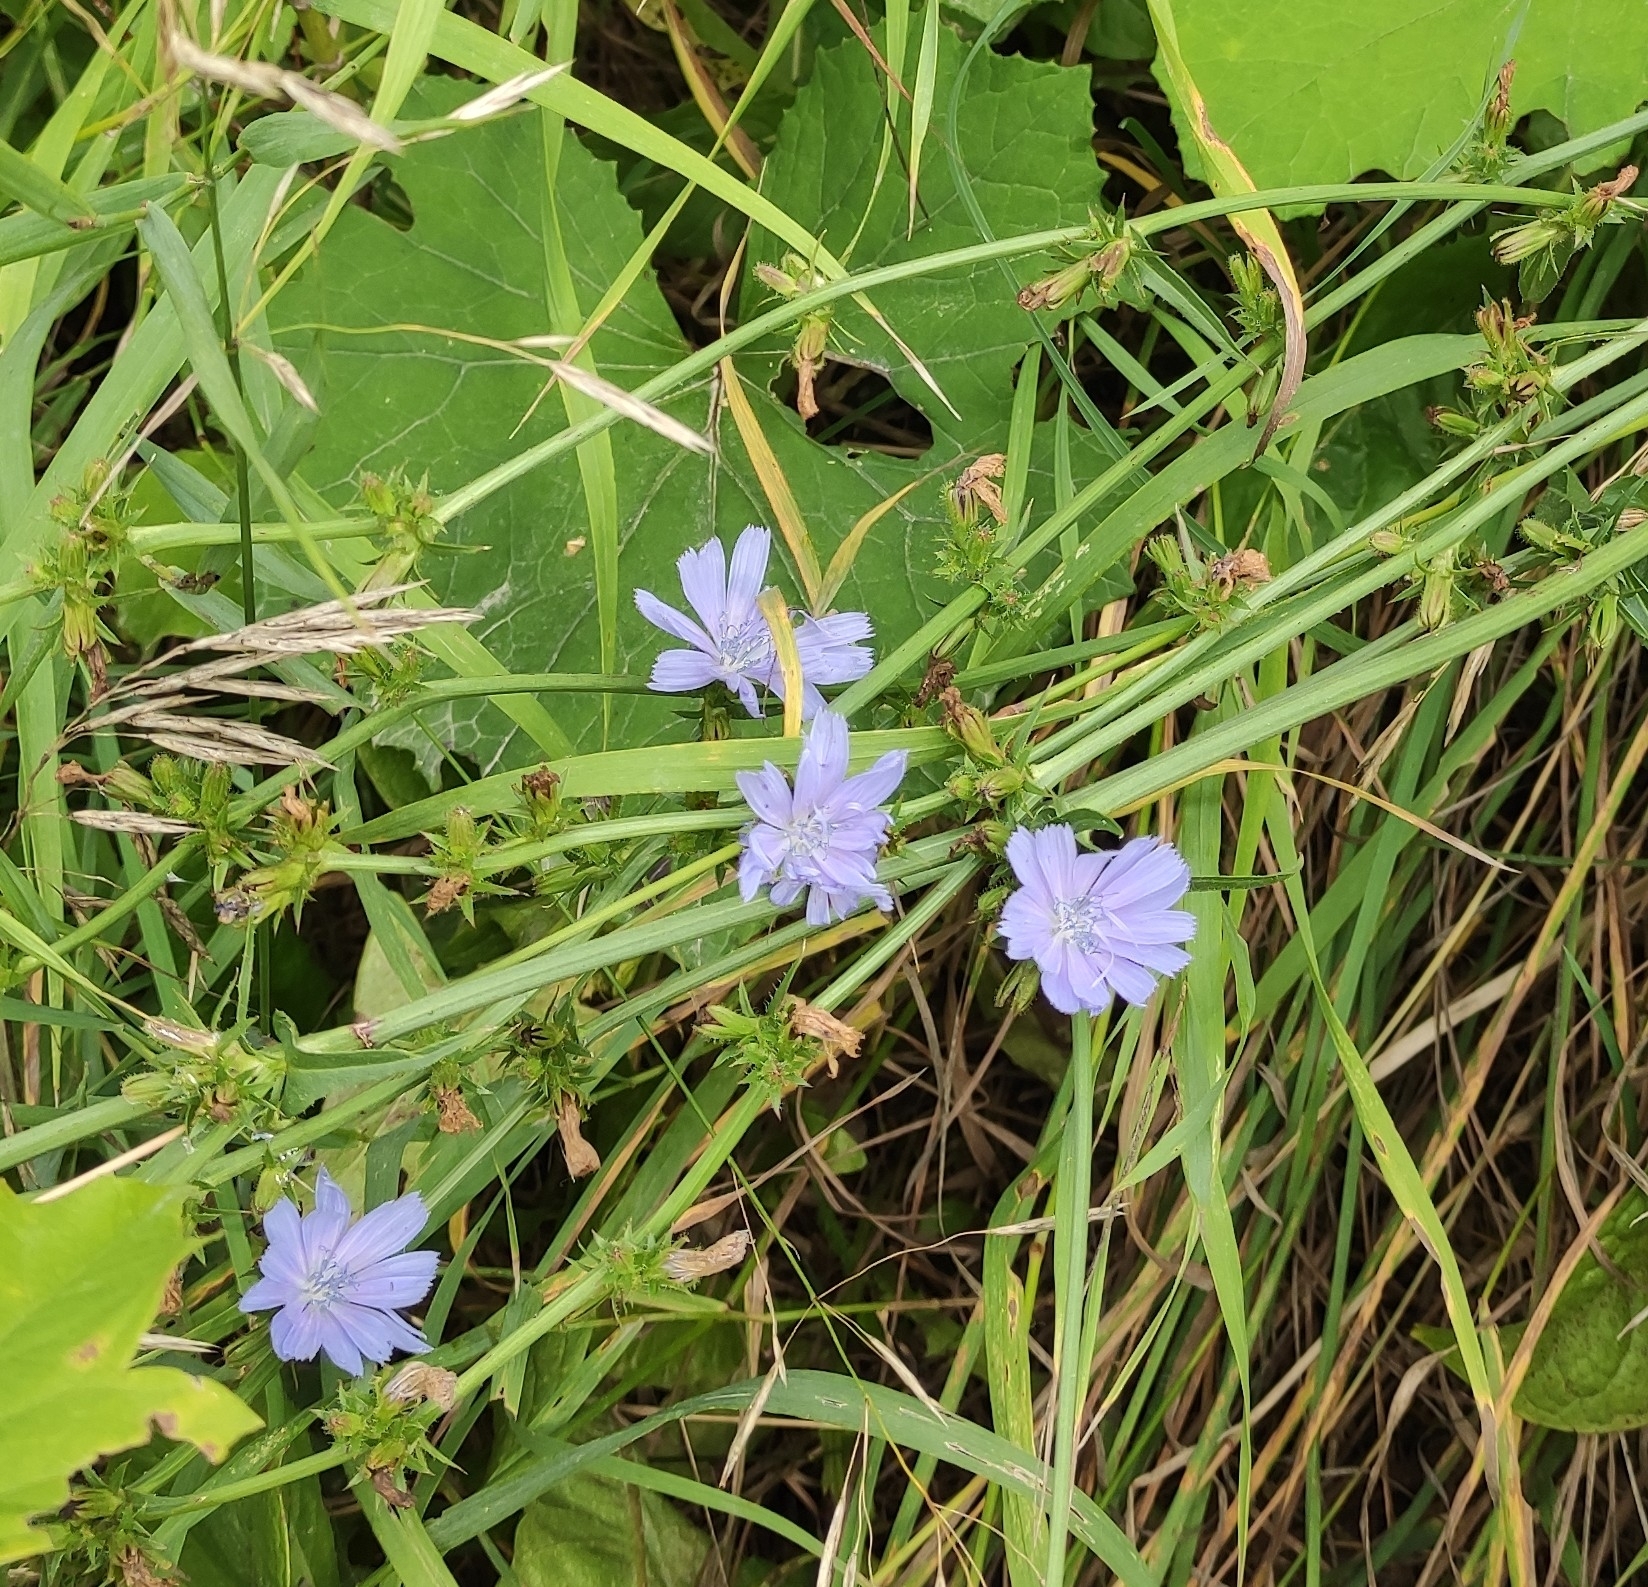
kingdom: Plantae
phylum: Tracheophyta
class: Magnoliopsida
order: Asterales
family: Asteraceae
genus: Cichorium
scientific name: Cichorium intybus
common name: Chicory
